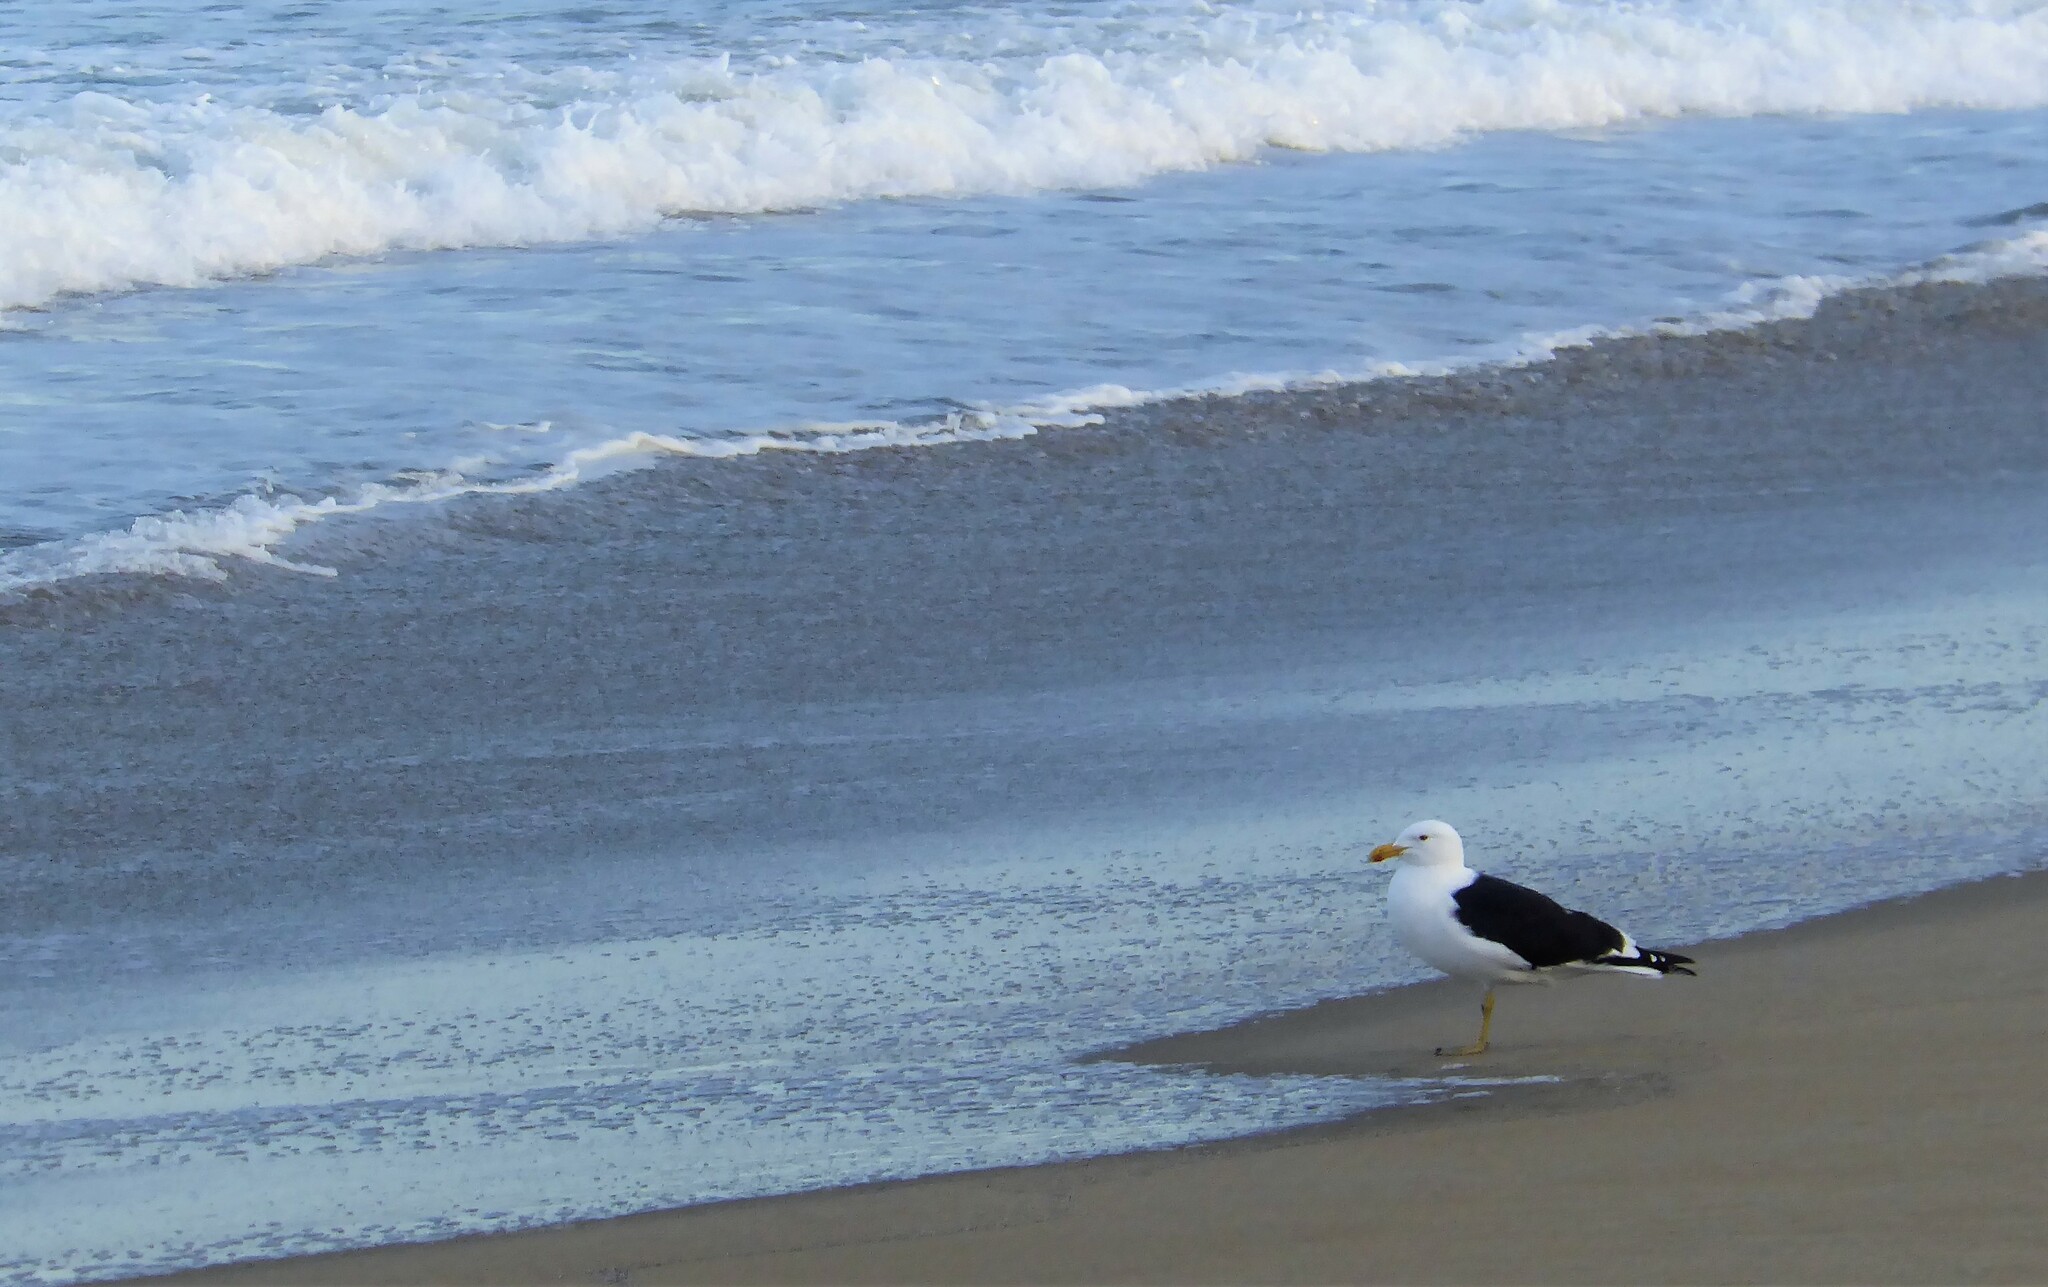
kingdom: Animalia
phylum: Chordata
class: Aves
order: Charadriiformes
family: Laridae
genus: Larus
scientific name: Larus dominicanus
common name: Kelp gull
